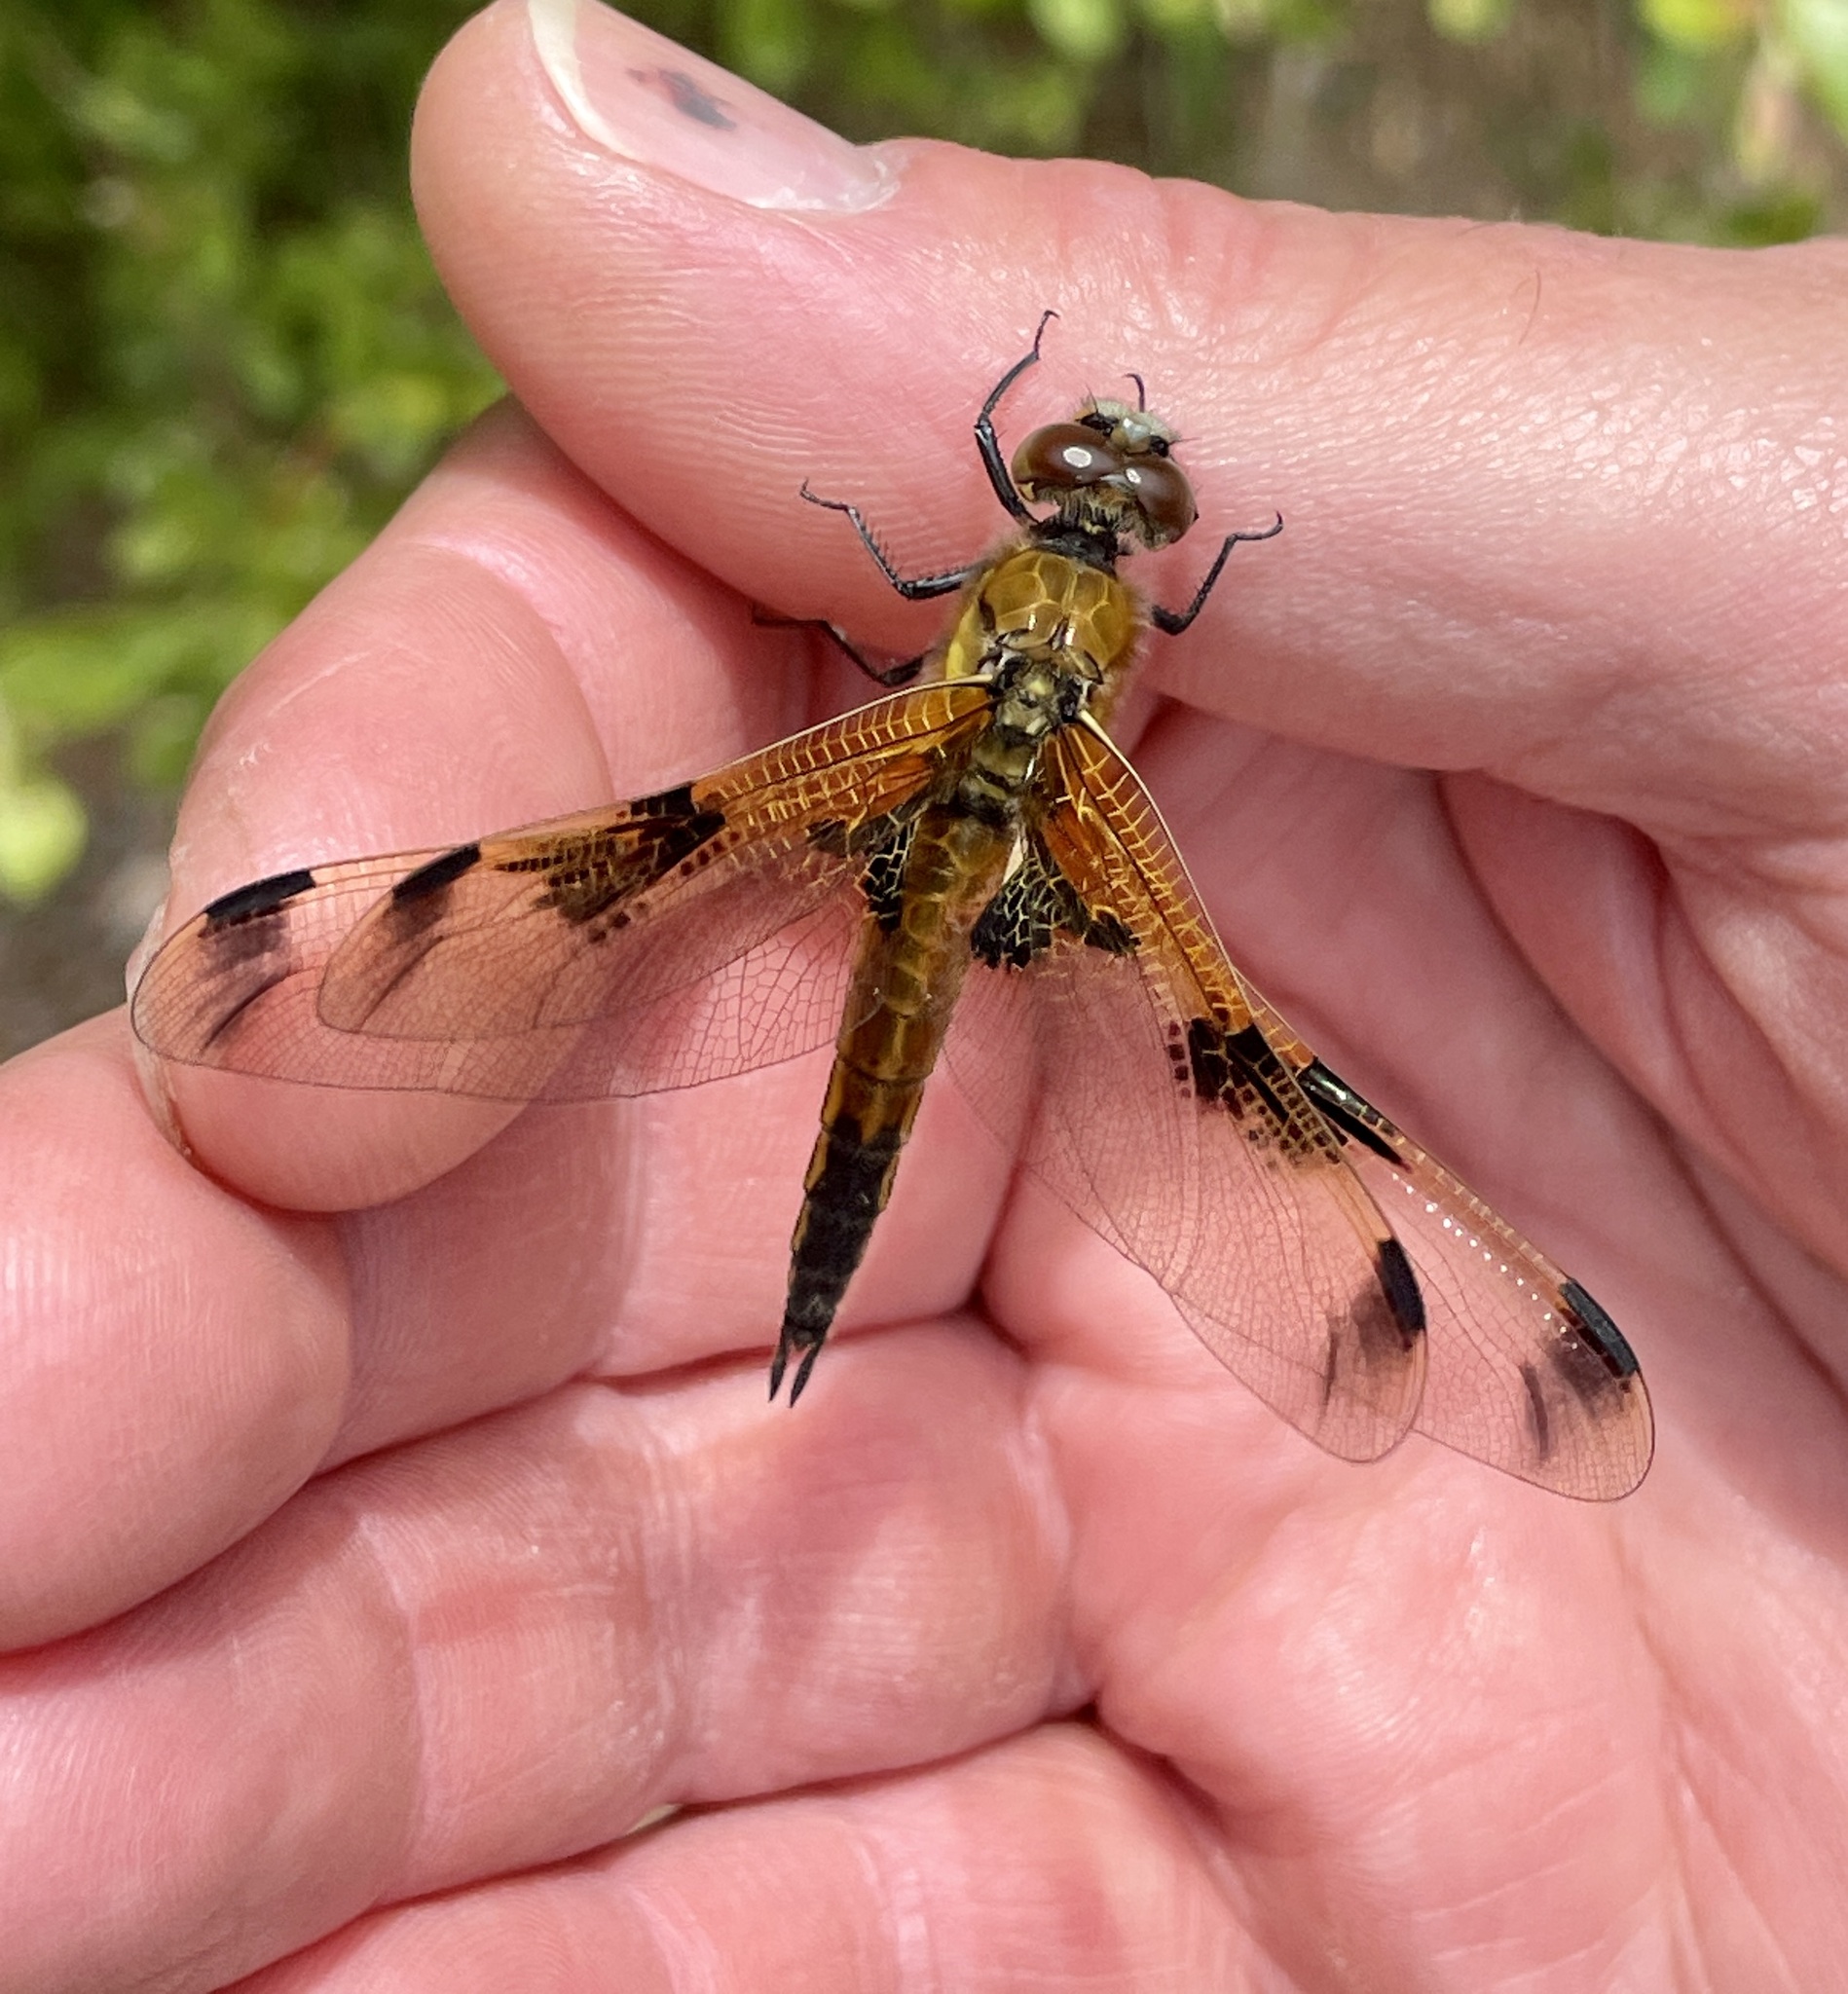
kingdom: Animalia
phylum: Arthropoda
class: Insecta
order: Odonata
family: Libellulidae
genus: Libellula
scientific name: Libellula quadrimaculata
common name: Four-spotted chaser
